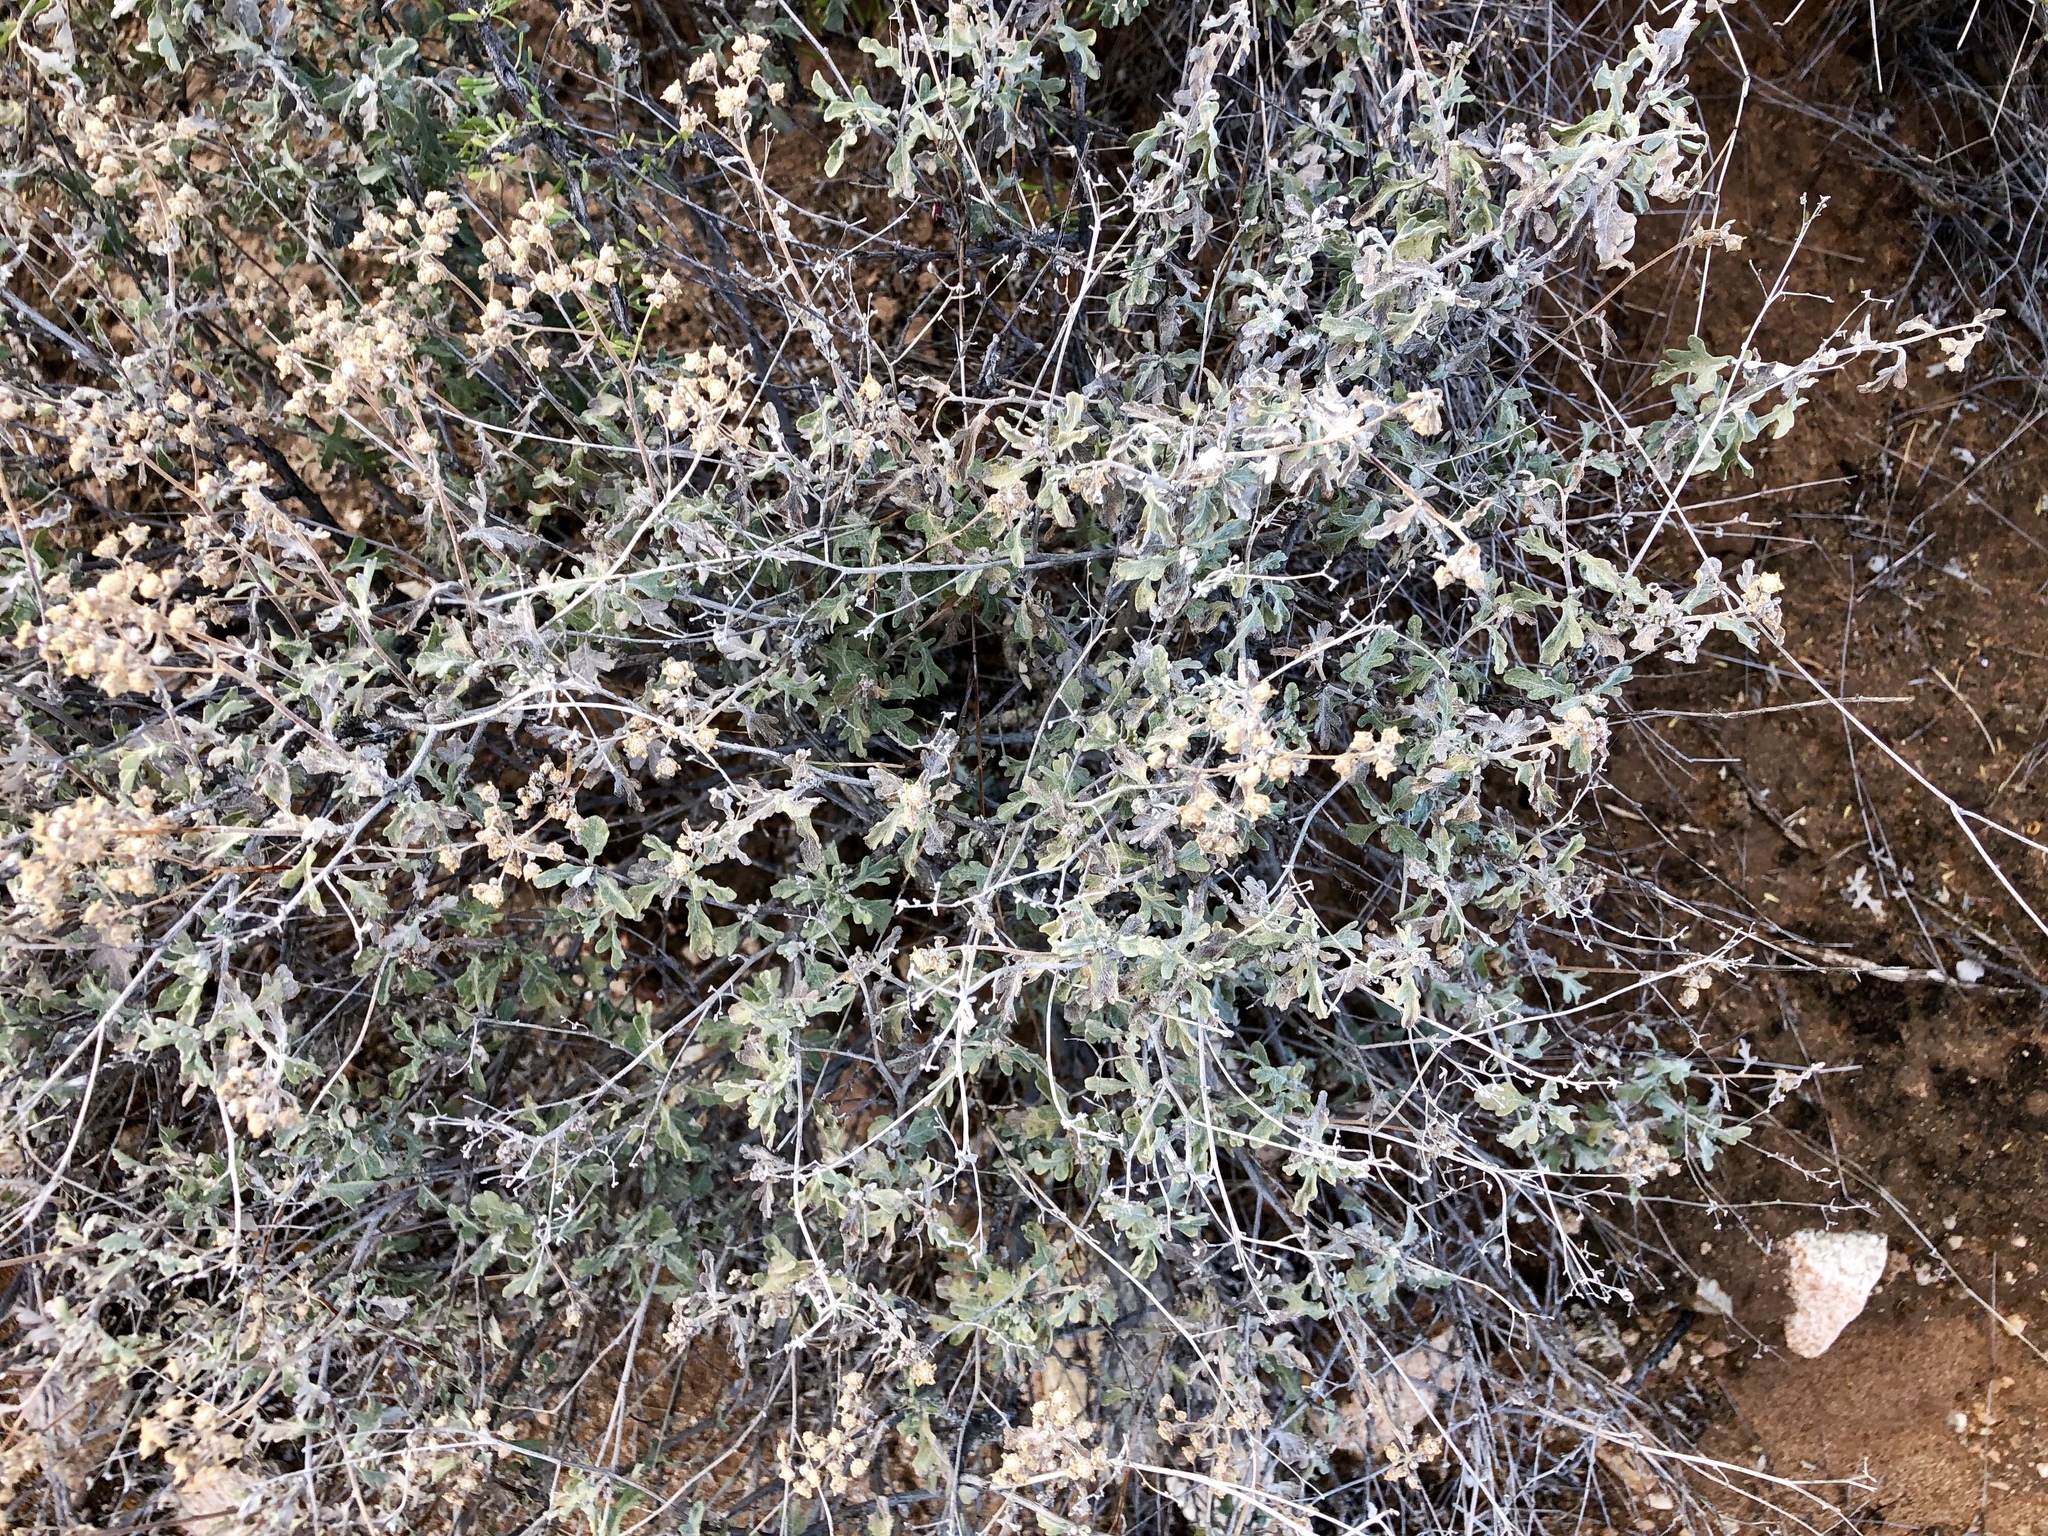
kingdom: Plantae
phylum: Tracheophyta
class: Magnoliopsida
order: Asterales
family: Asteraceae
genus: Parthenium
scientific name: Parthenium incanum
